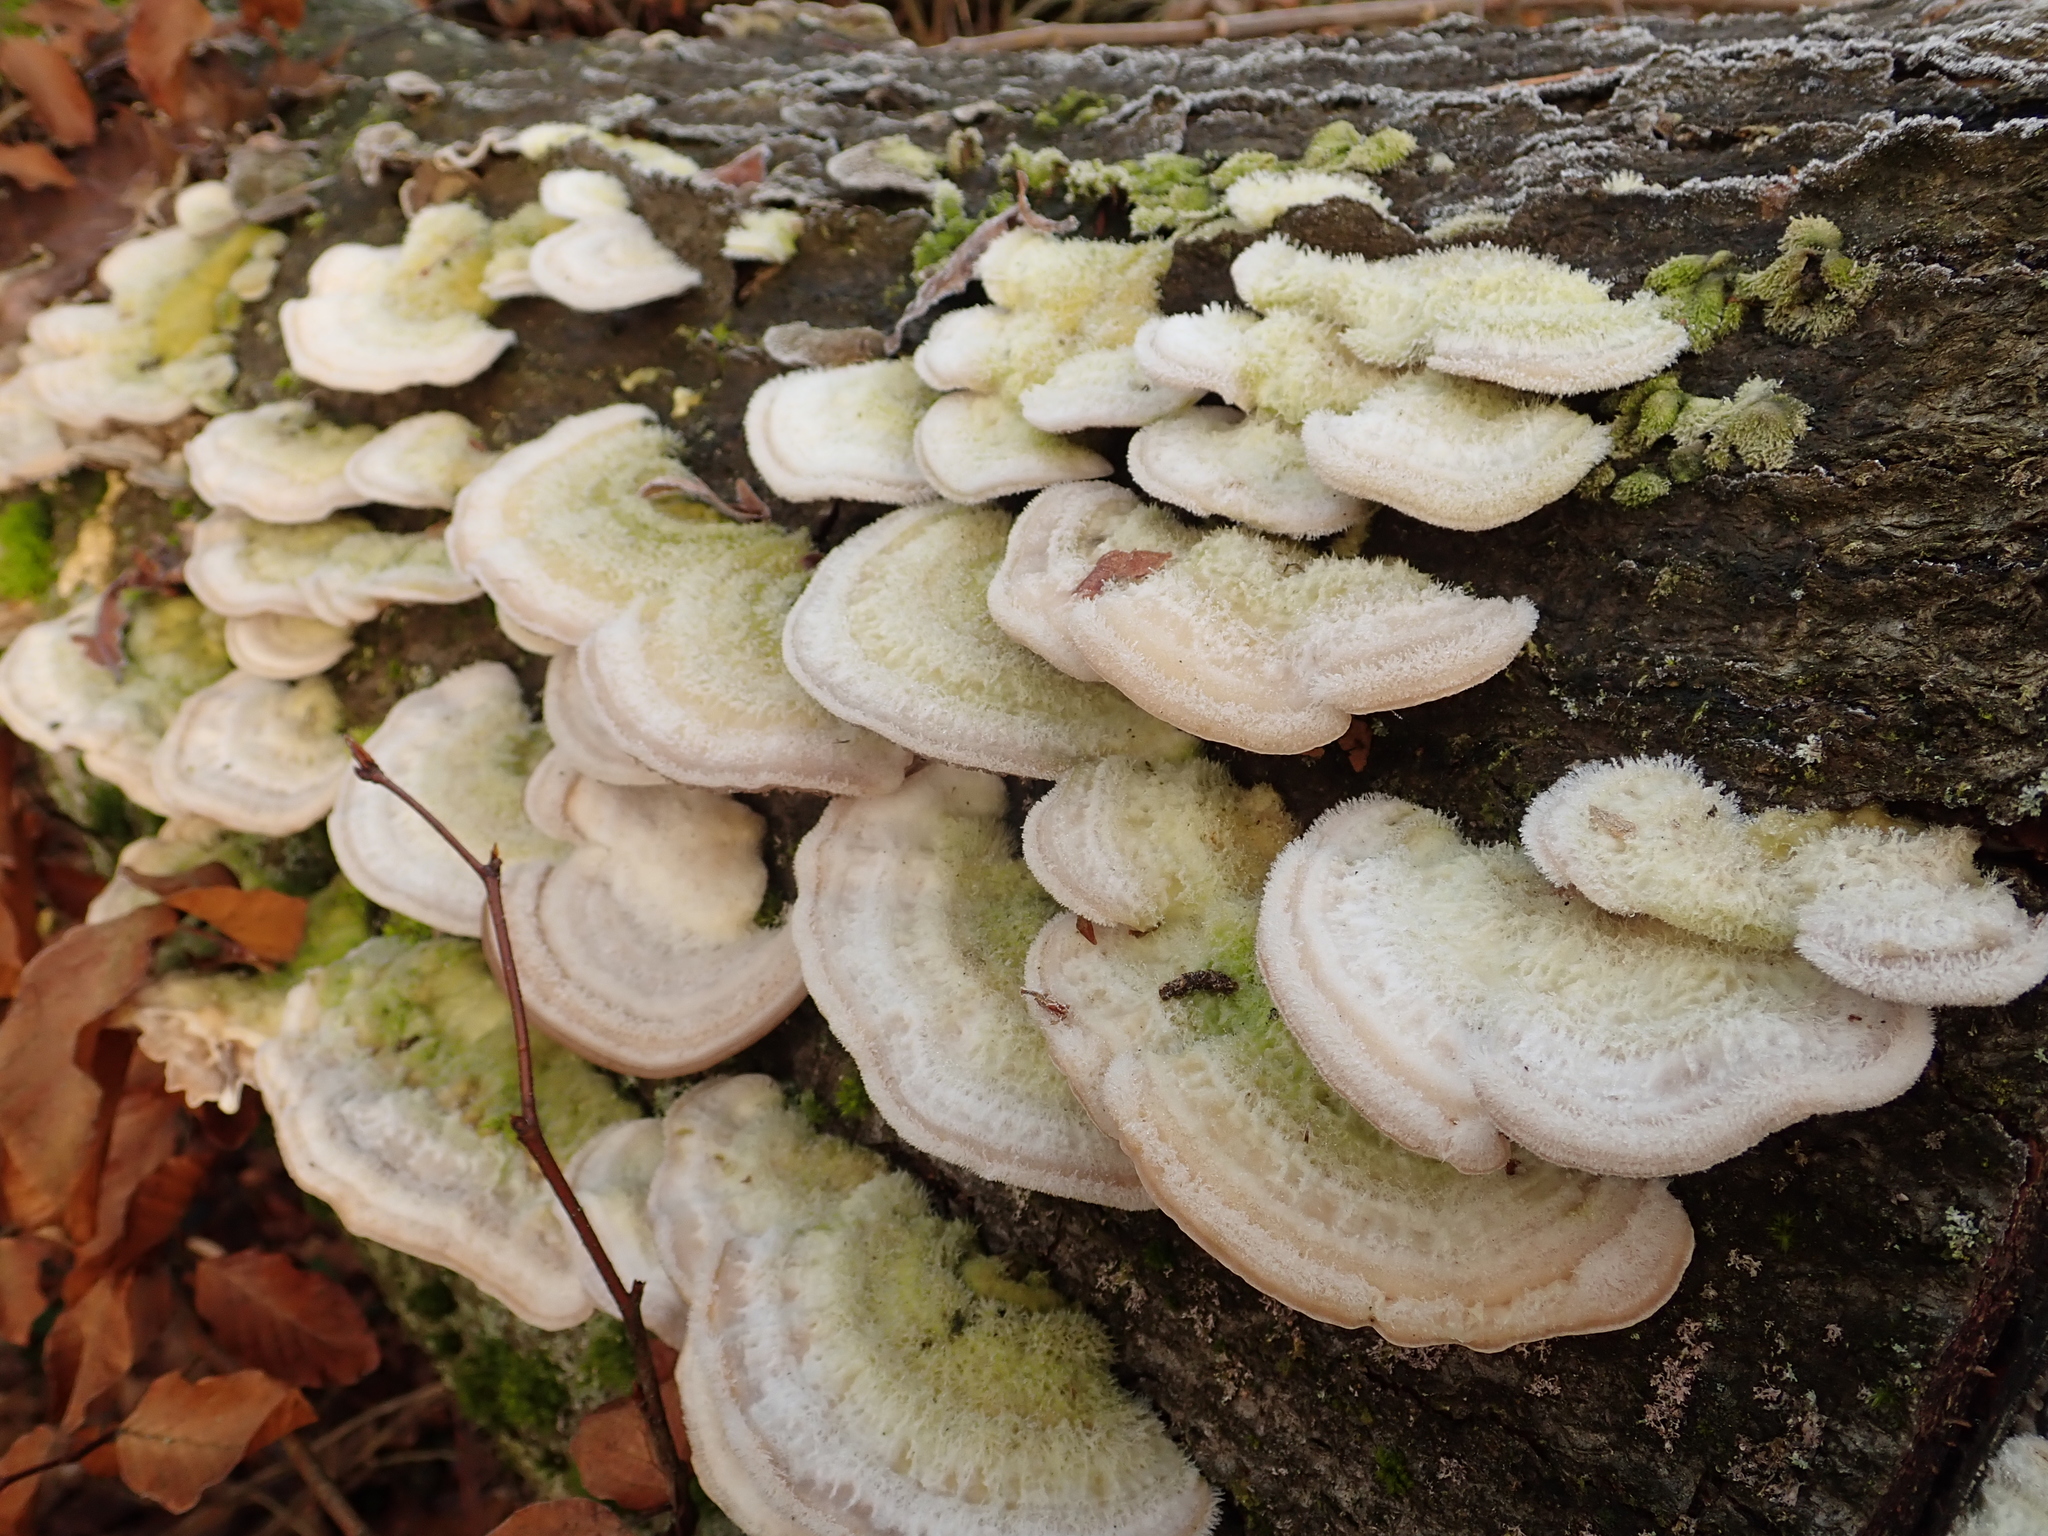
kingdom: Fungi
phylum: Basidiomycota
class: Agaricomycetes
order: Polyporales
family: Polyporaceae
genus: Trametes
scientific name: Trametes hirsuta
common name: Hairy bracket
